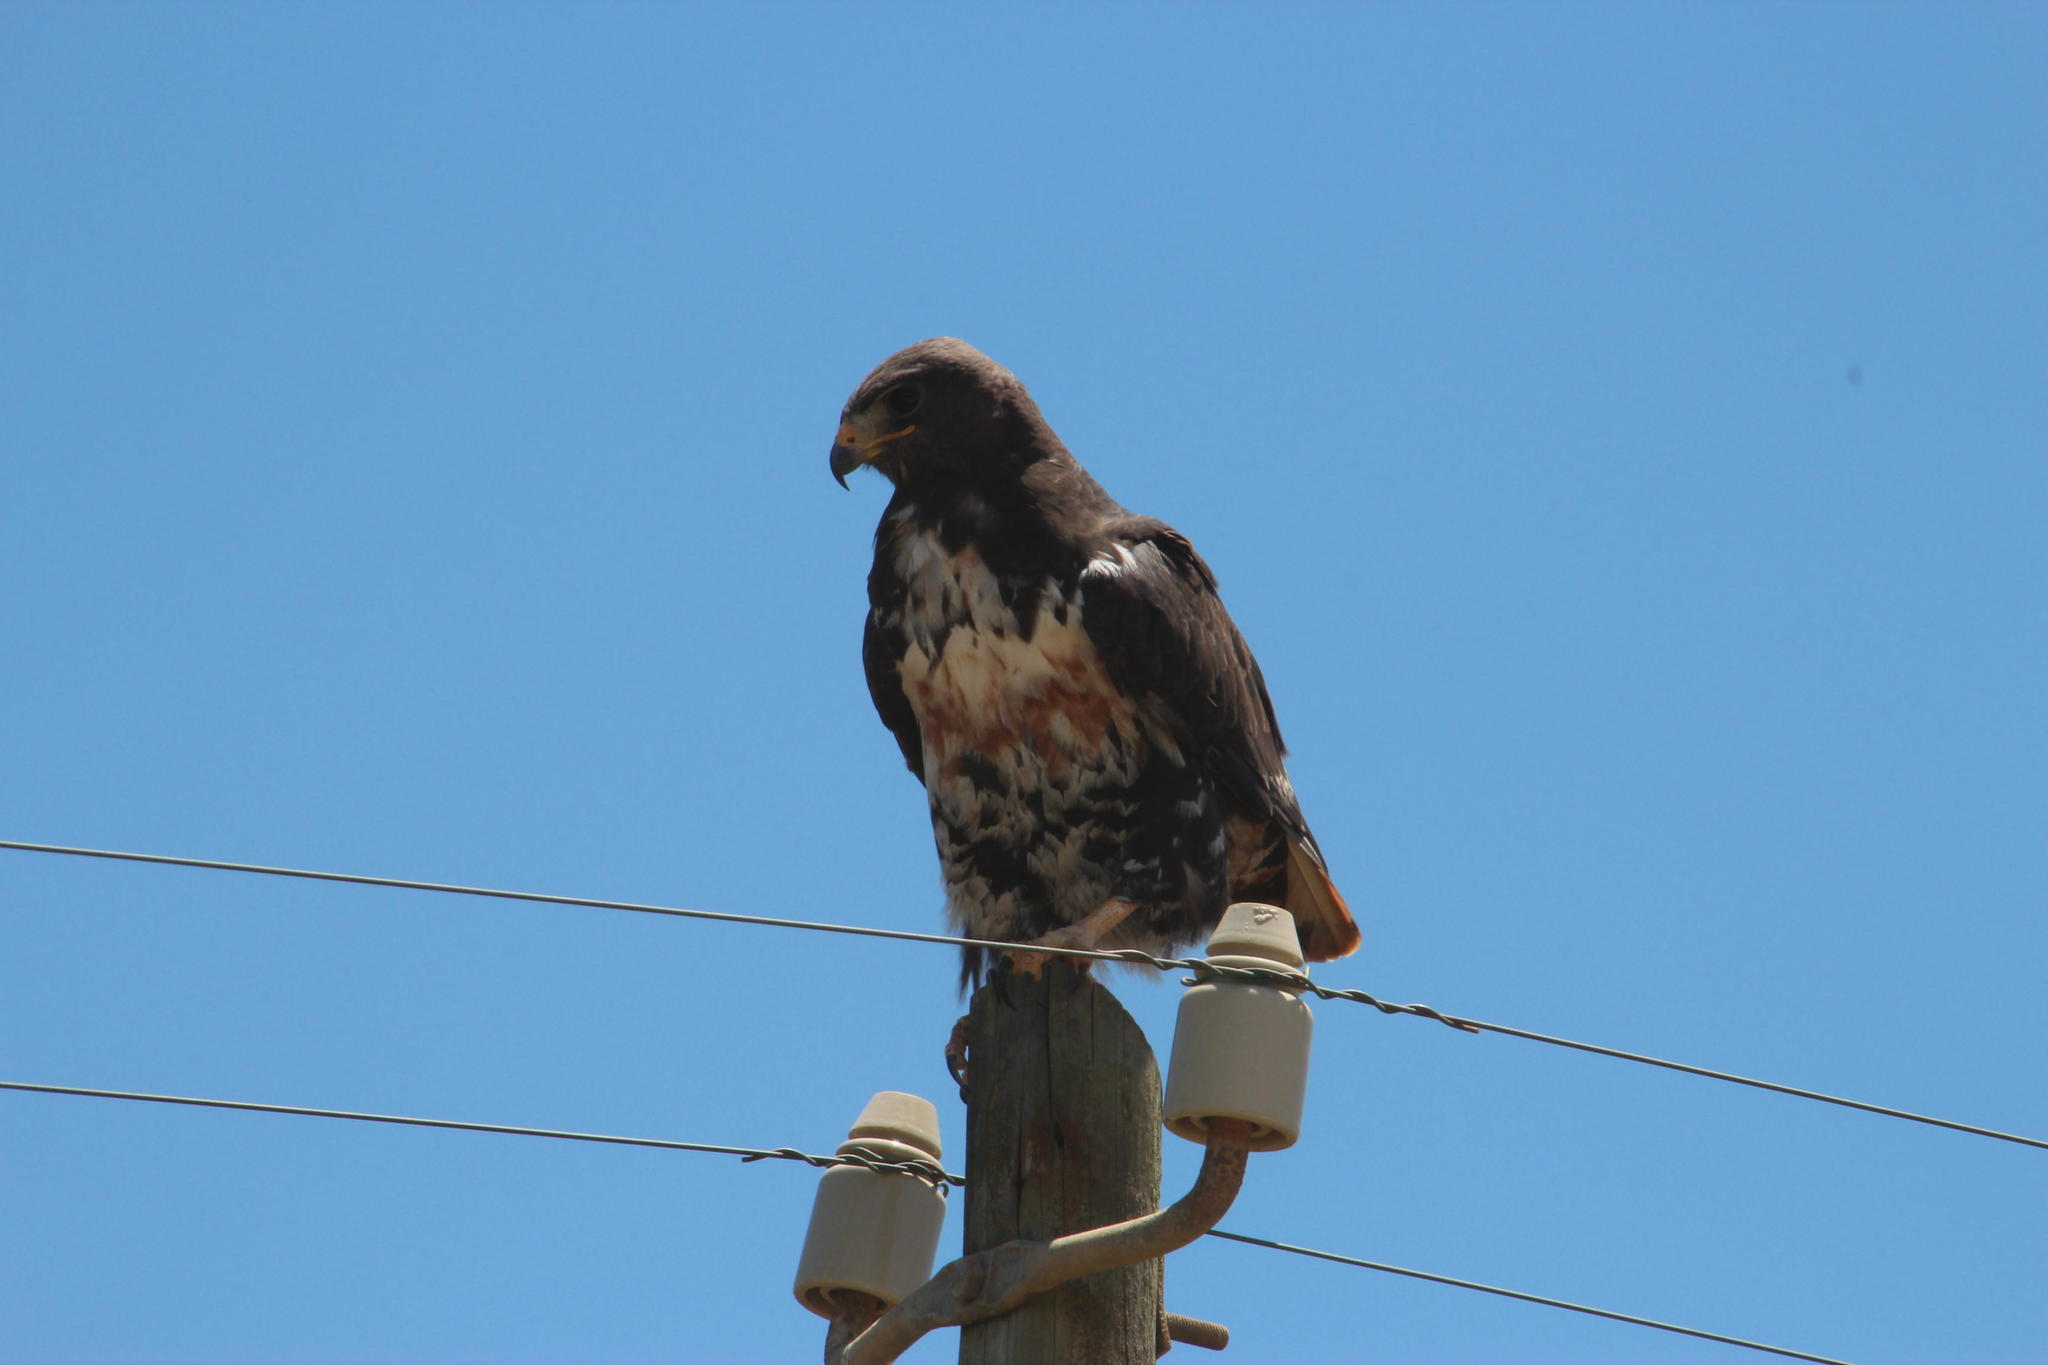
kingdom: Animalia
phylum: Chordata
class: Aves
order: Accipitriformes
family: Accipitridae
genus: Buteo
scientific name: Buteo rufofuscus
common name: Jackal buzzard
